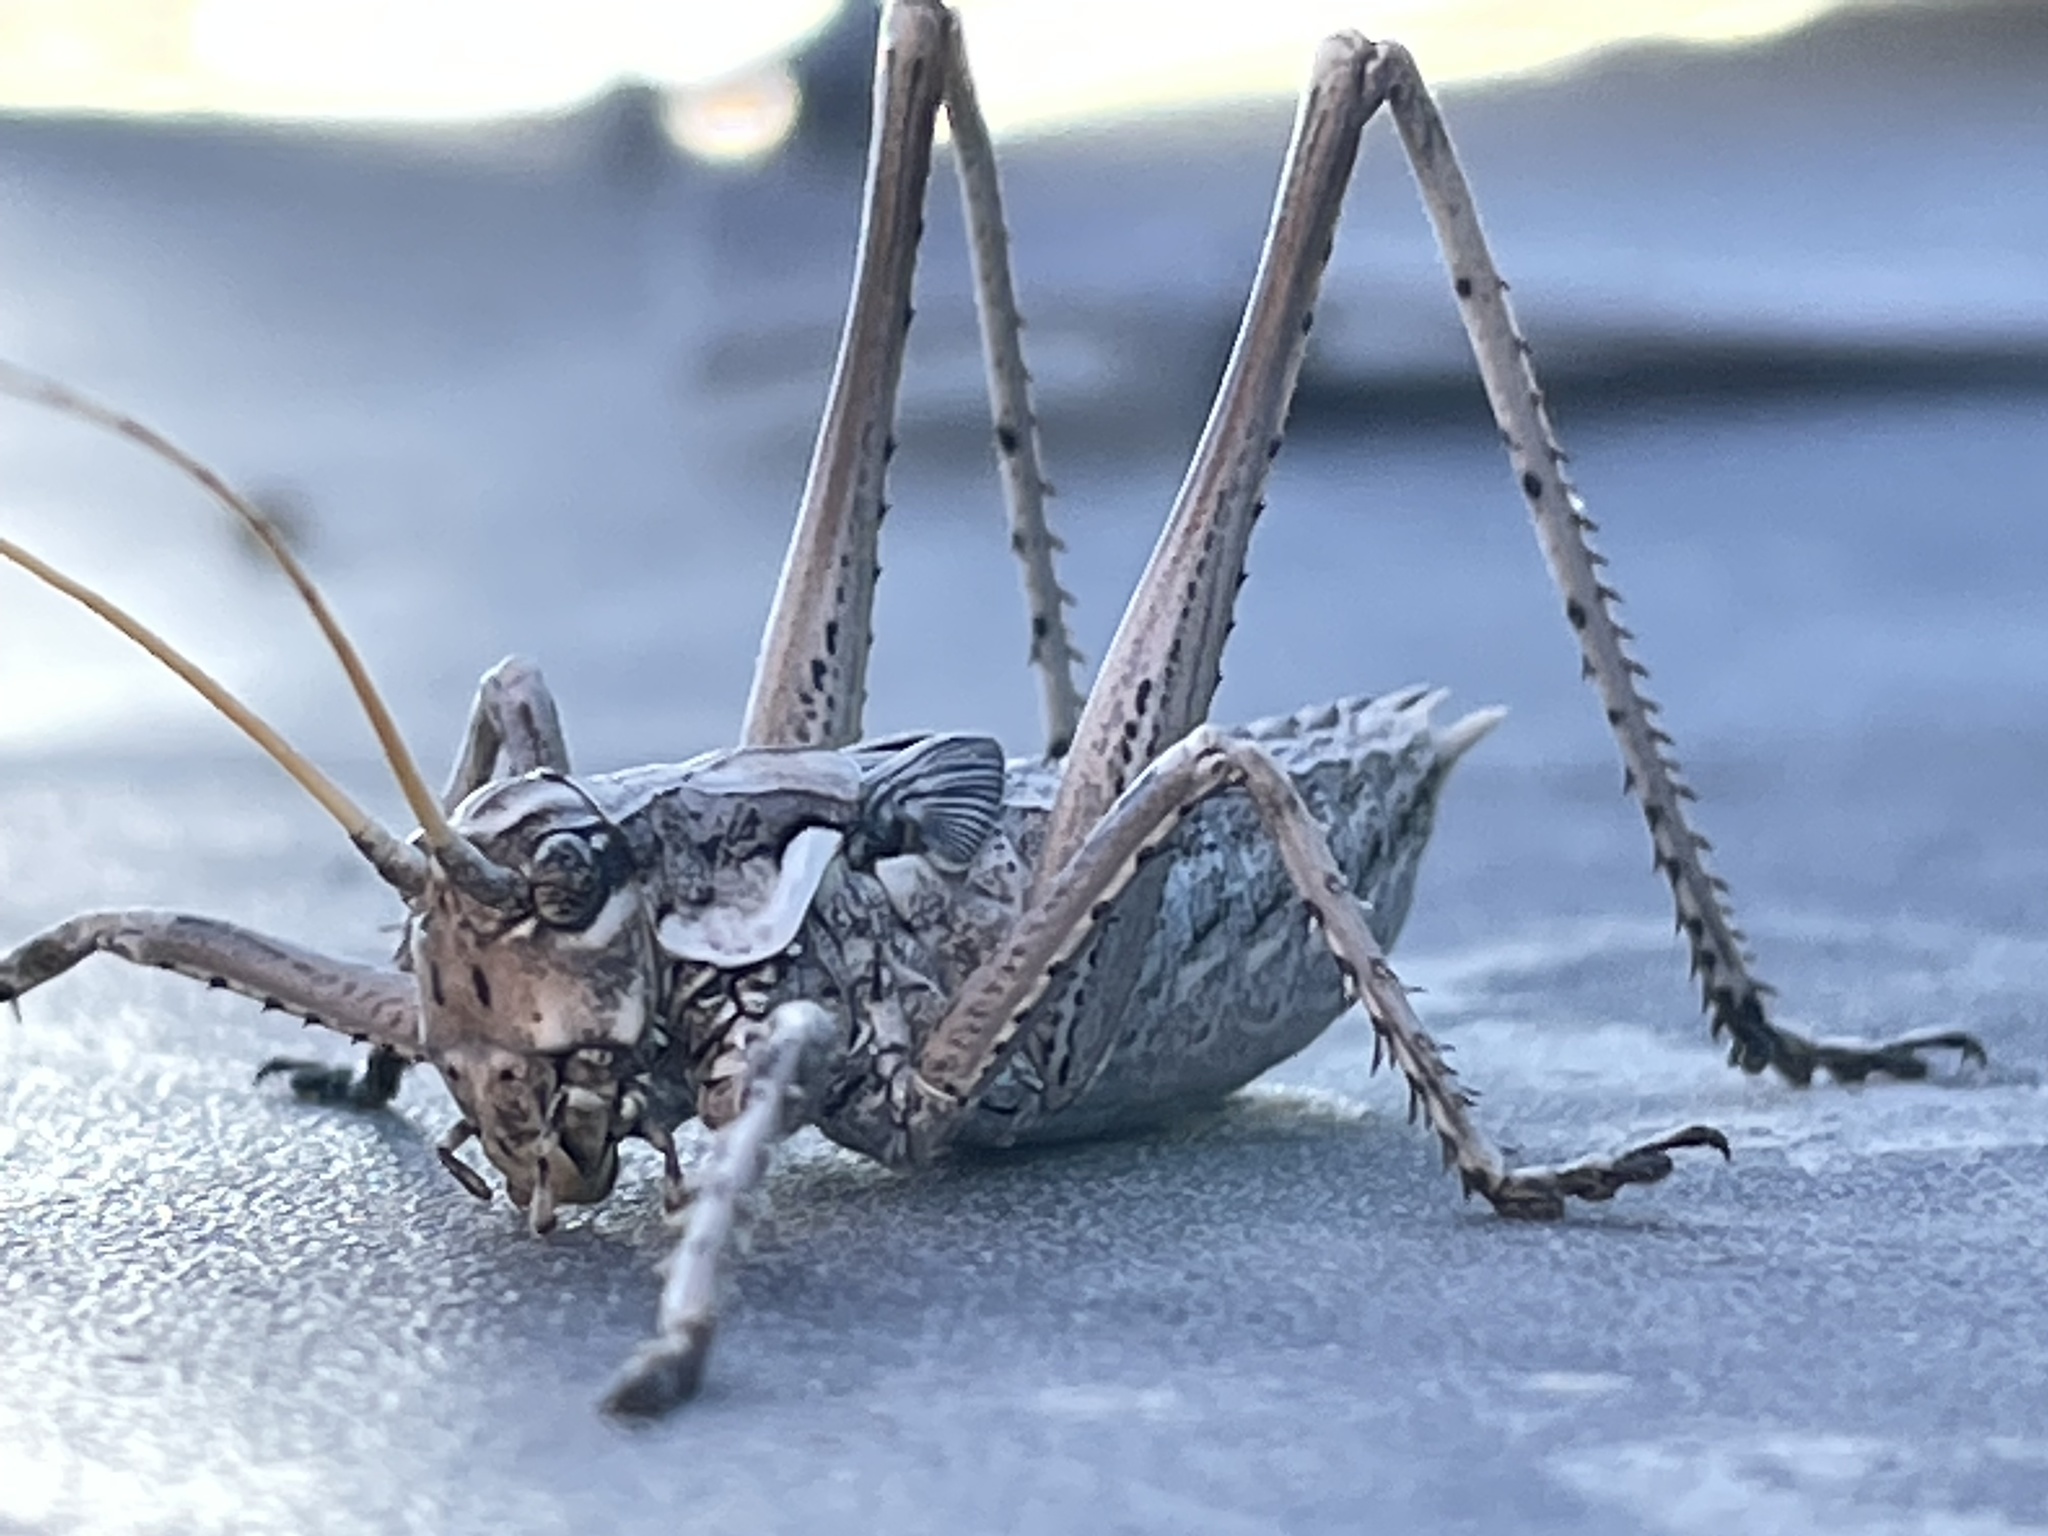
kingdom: Animalia
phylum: Arthropoda
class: Insecta
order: Orthoptera
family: Tettigoniidae
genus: Capnobotes
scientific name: Capnobotes fuliginosus
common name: Sooty longwing
